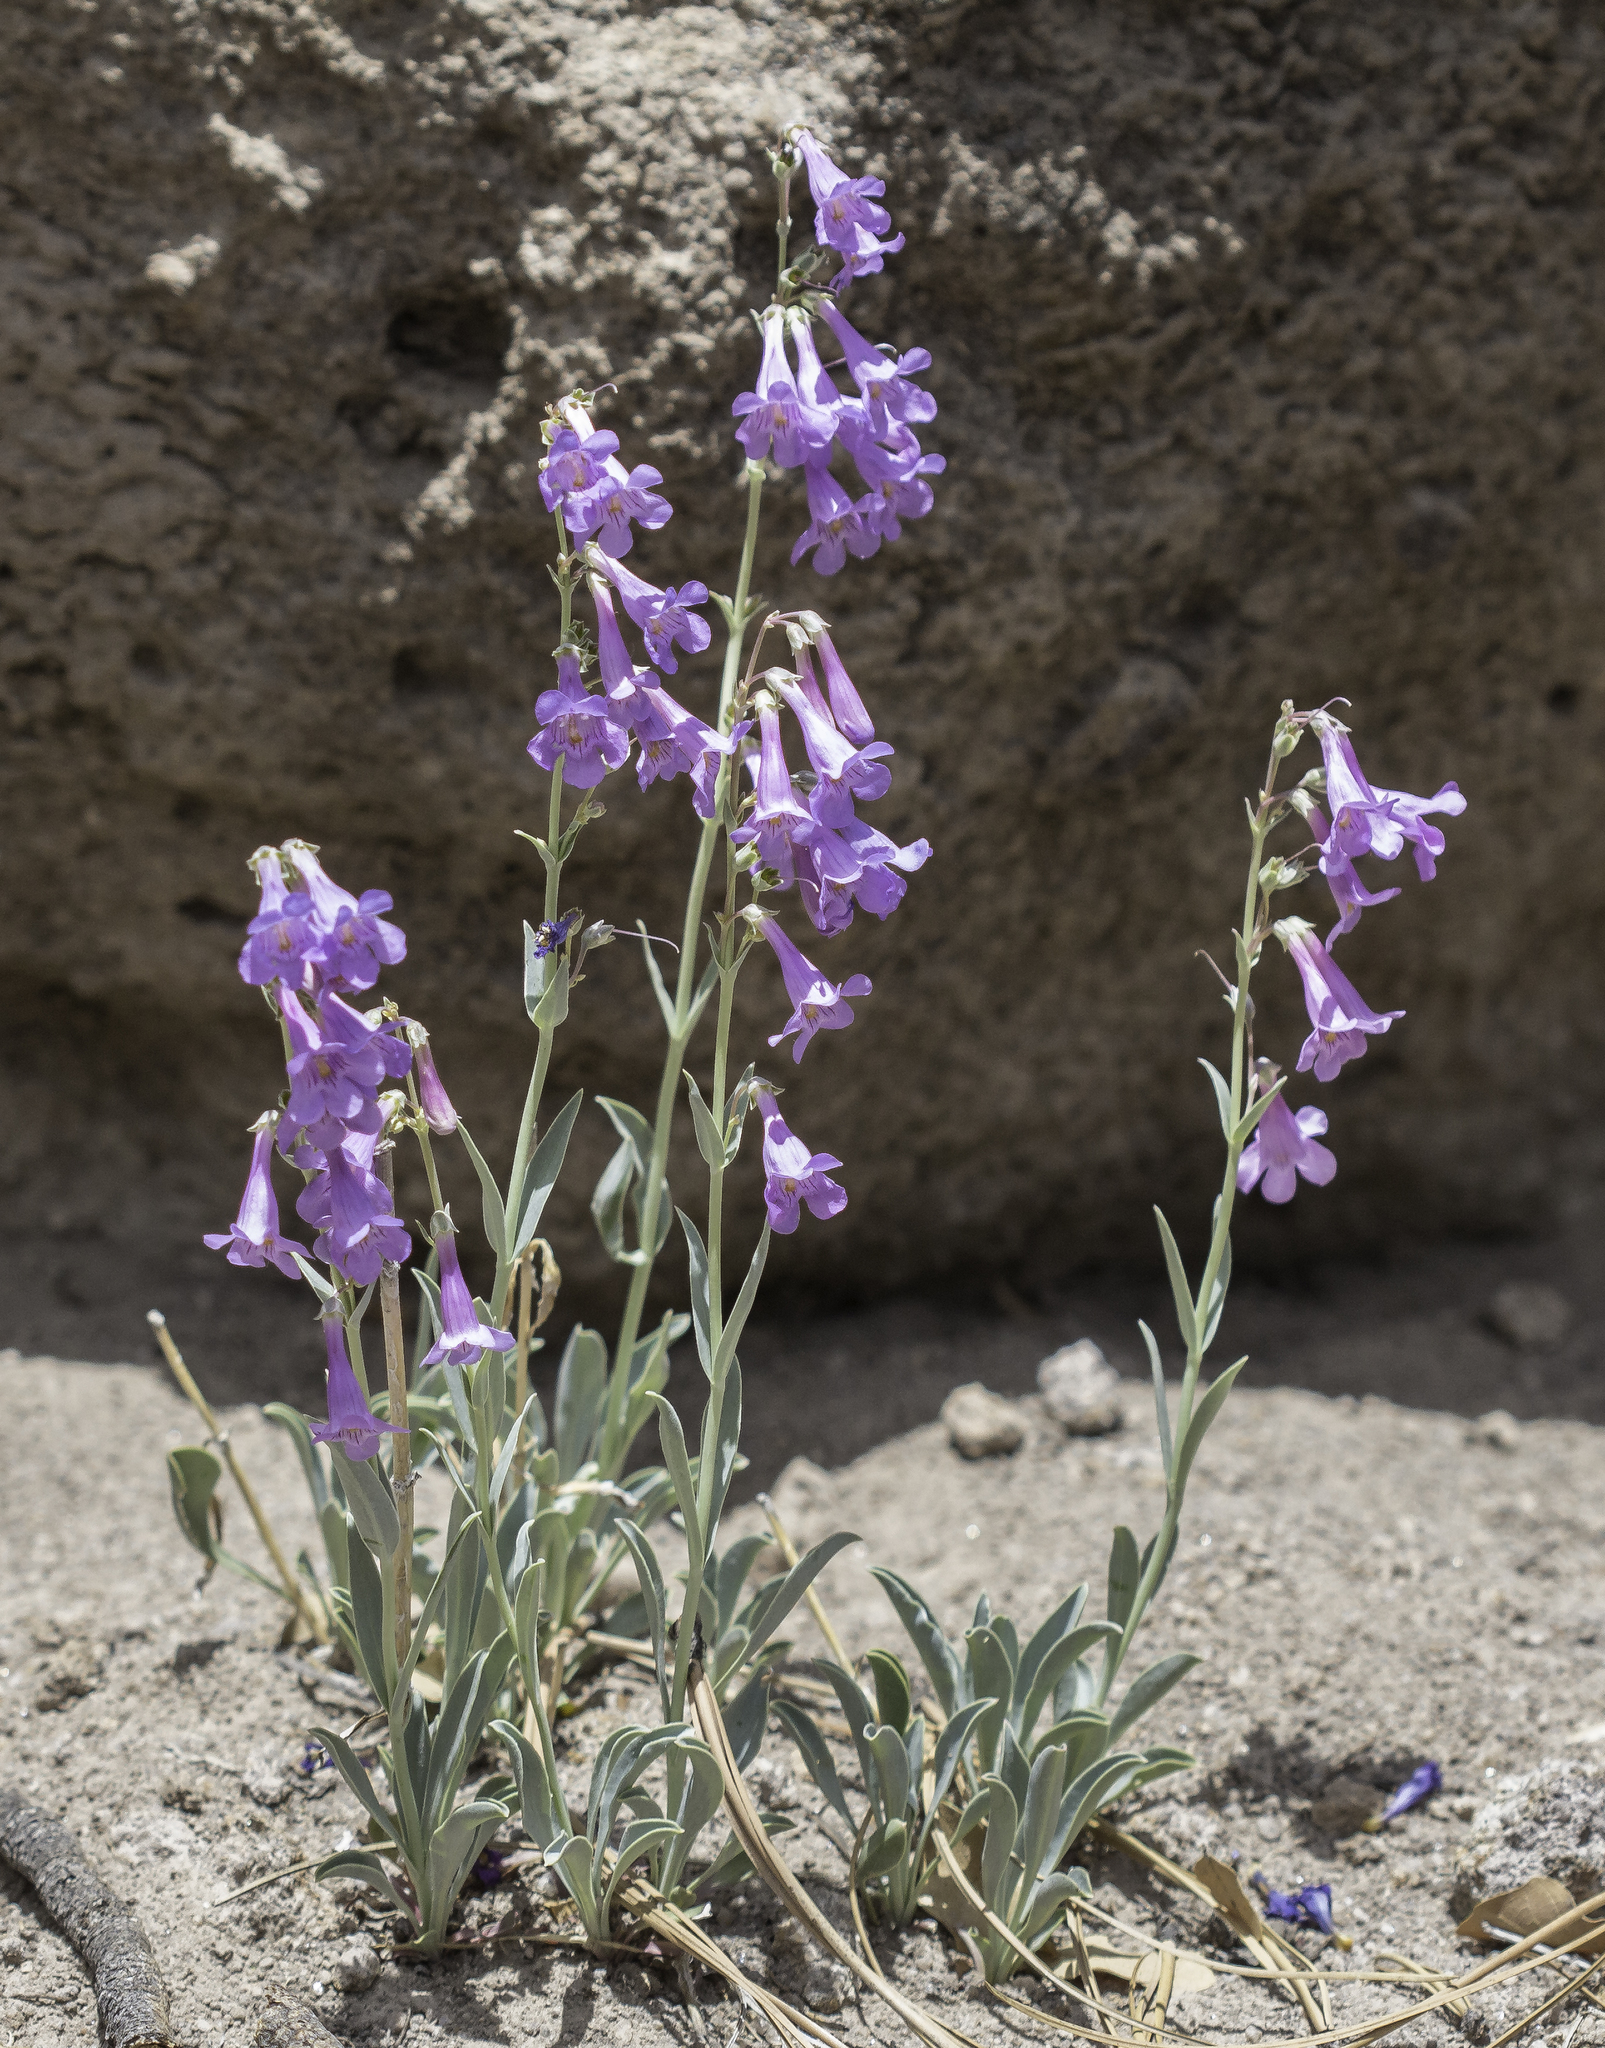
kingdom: Plantae
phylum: Tracheophyta
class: Magnoliopsida
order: Lamiales
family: Plantaginaceae
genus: Penstemon
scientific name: Penstemon secundiflorus
